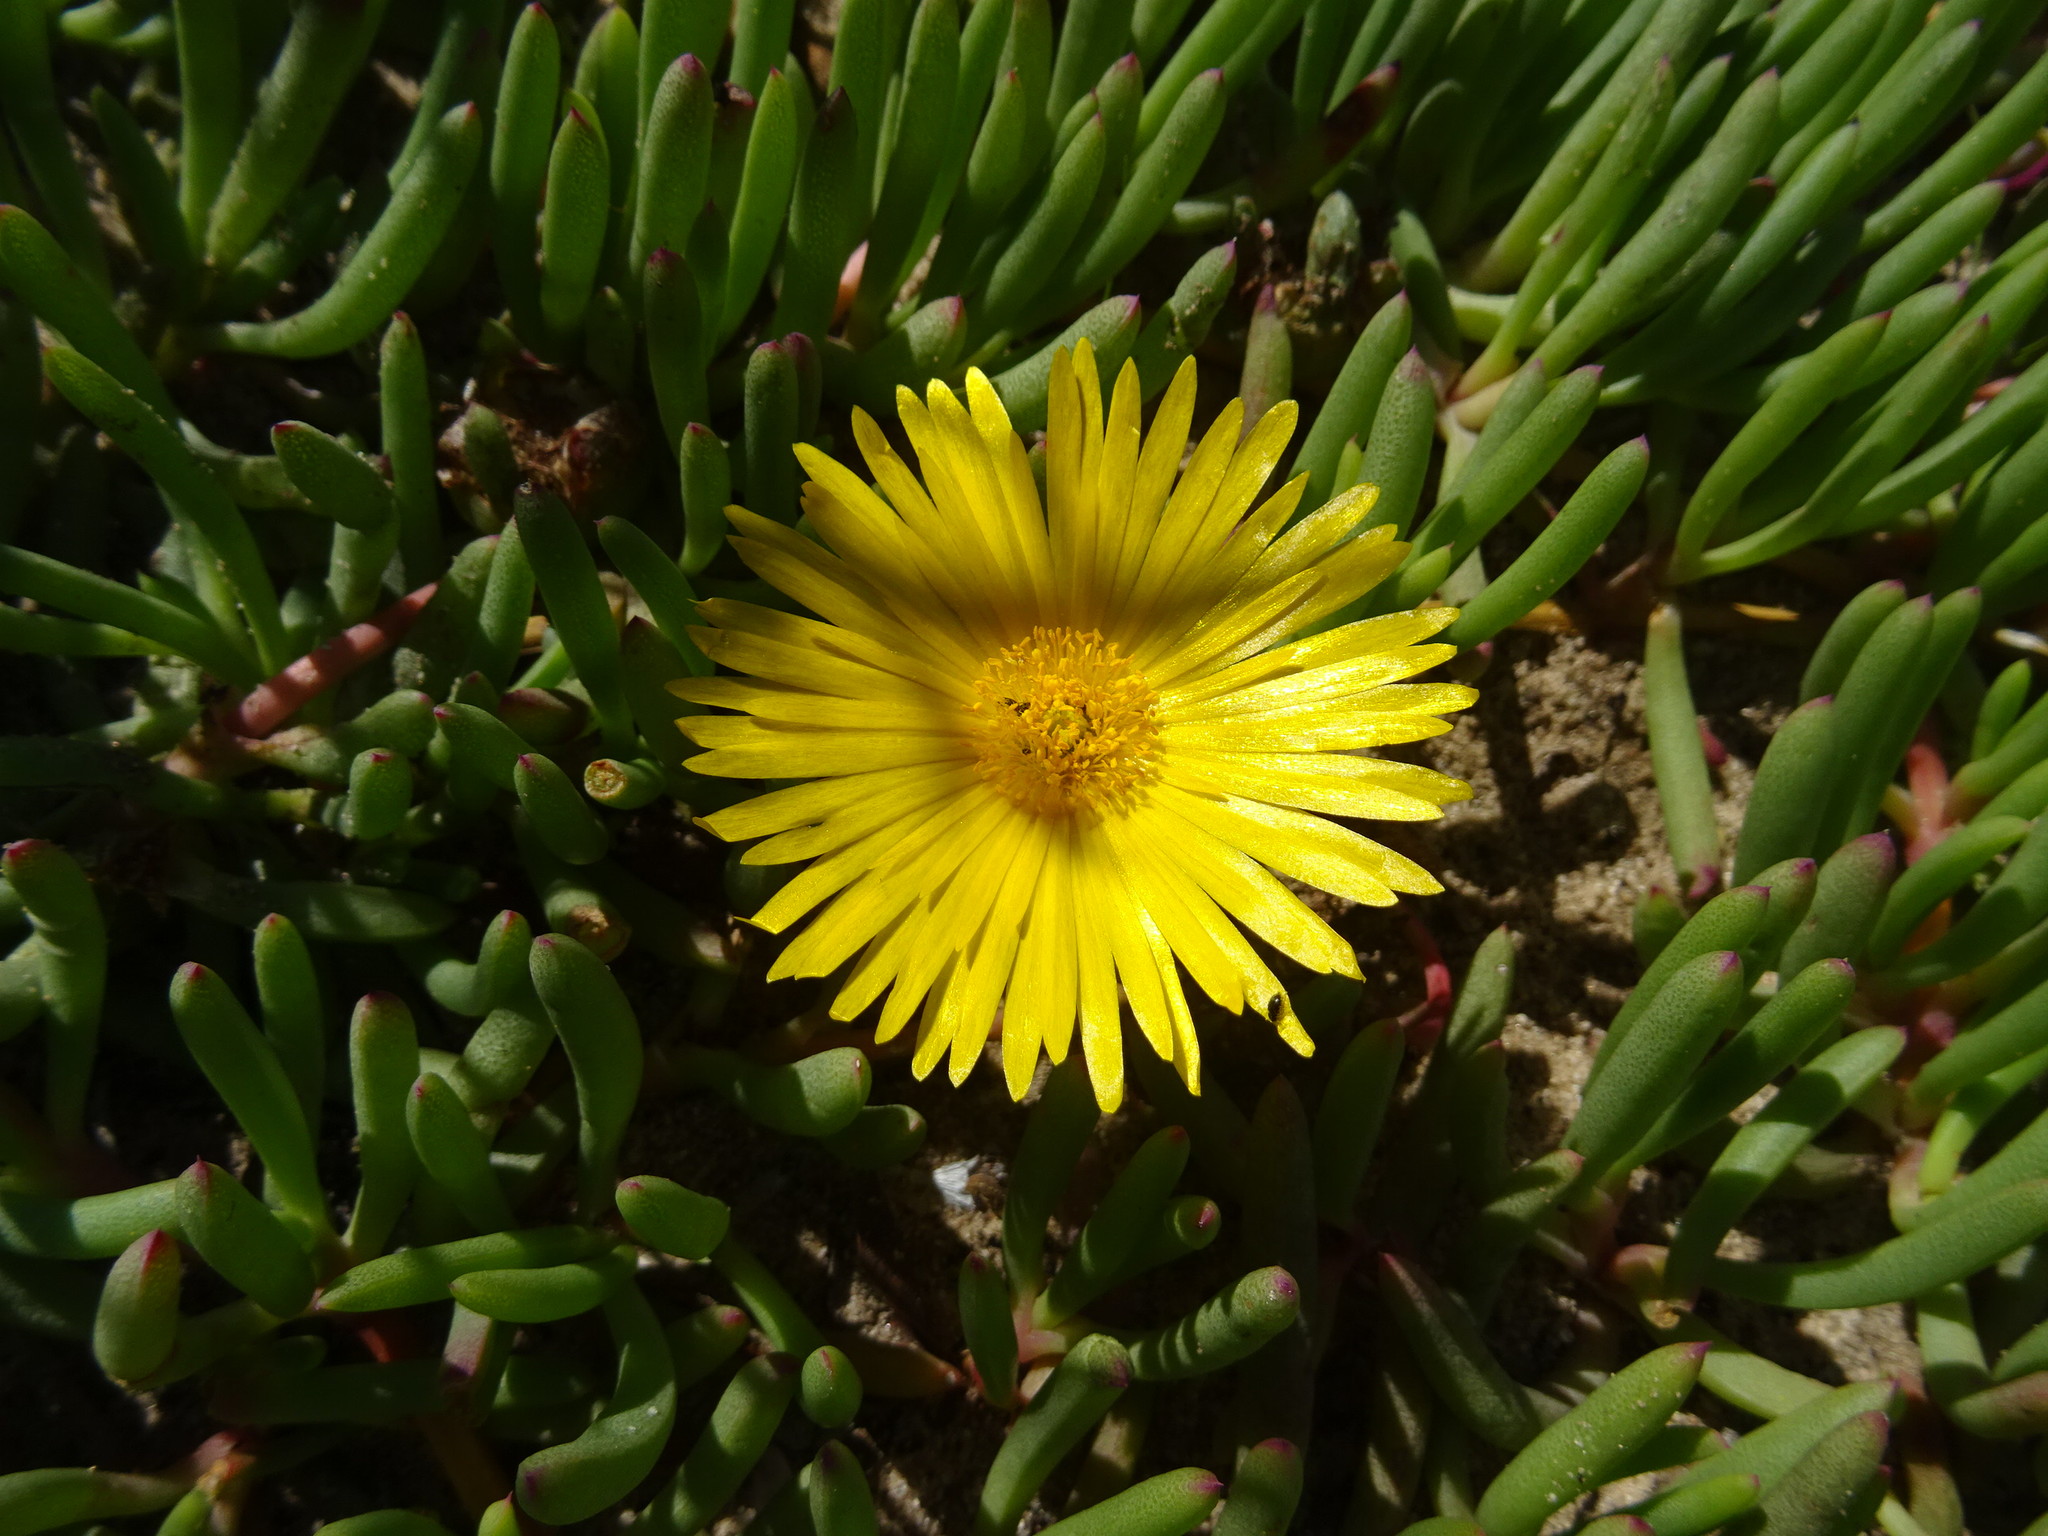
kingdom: Plantae
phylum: Tracheophyta
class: Magnoliopsida
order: Caryophyllales
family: Aizoaceae
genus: Jordaaniella
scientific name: Jordaaniella dubia
